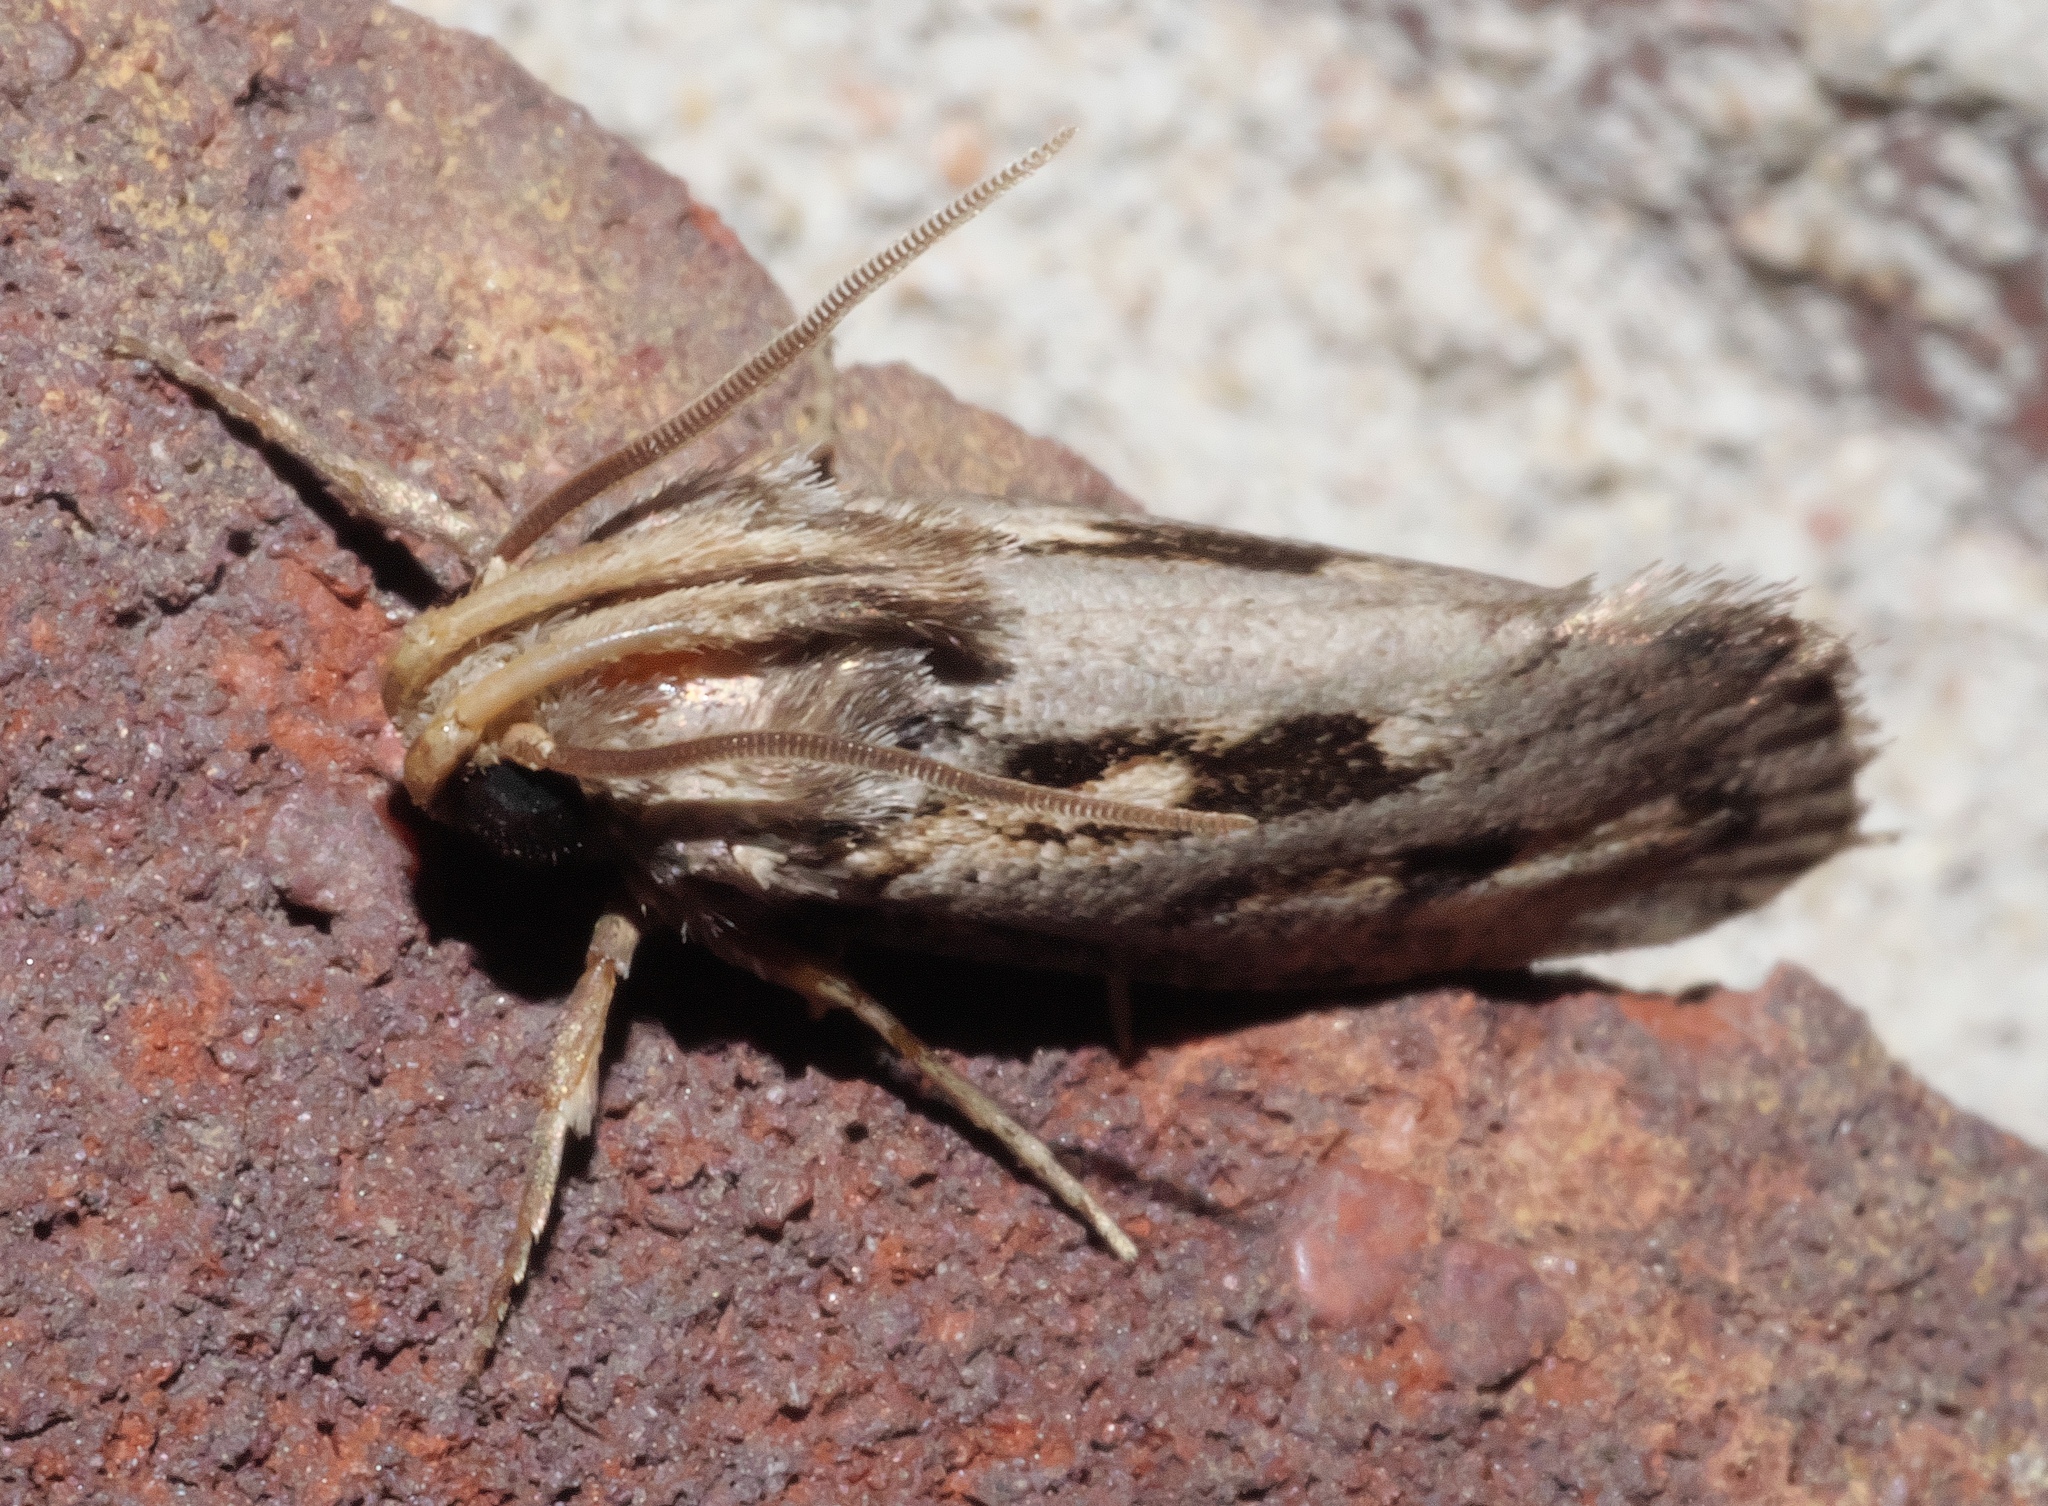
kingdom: Animalia
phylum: Arthropoda
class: Insecta
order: Lepidoptera
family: Tineidae
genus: Acrolophus
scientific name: Acrolophus popeanella
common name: Clemens' grass tubeworm moth
